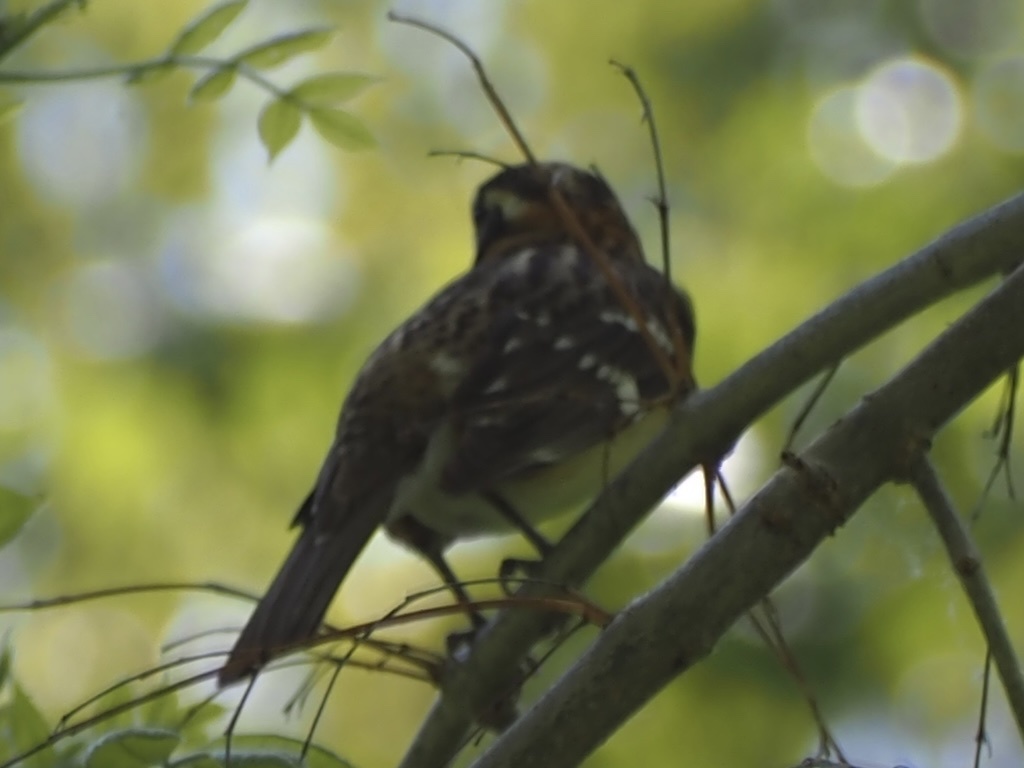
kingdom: Animalia
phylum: Chordata
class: Aves
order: Passeriformes
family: Cardinalidae
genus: Pheucticus
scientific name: Pheucticus melanocephalus
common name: Black-headed grosbeak
